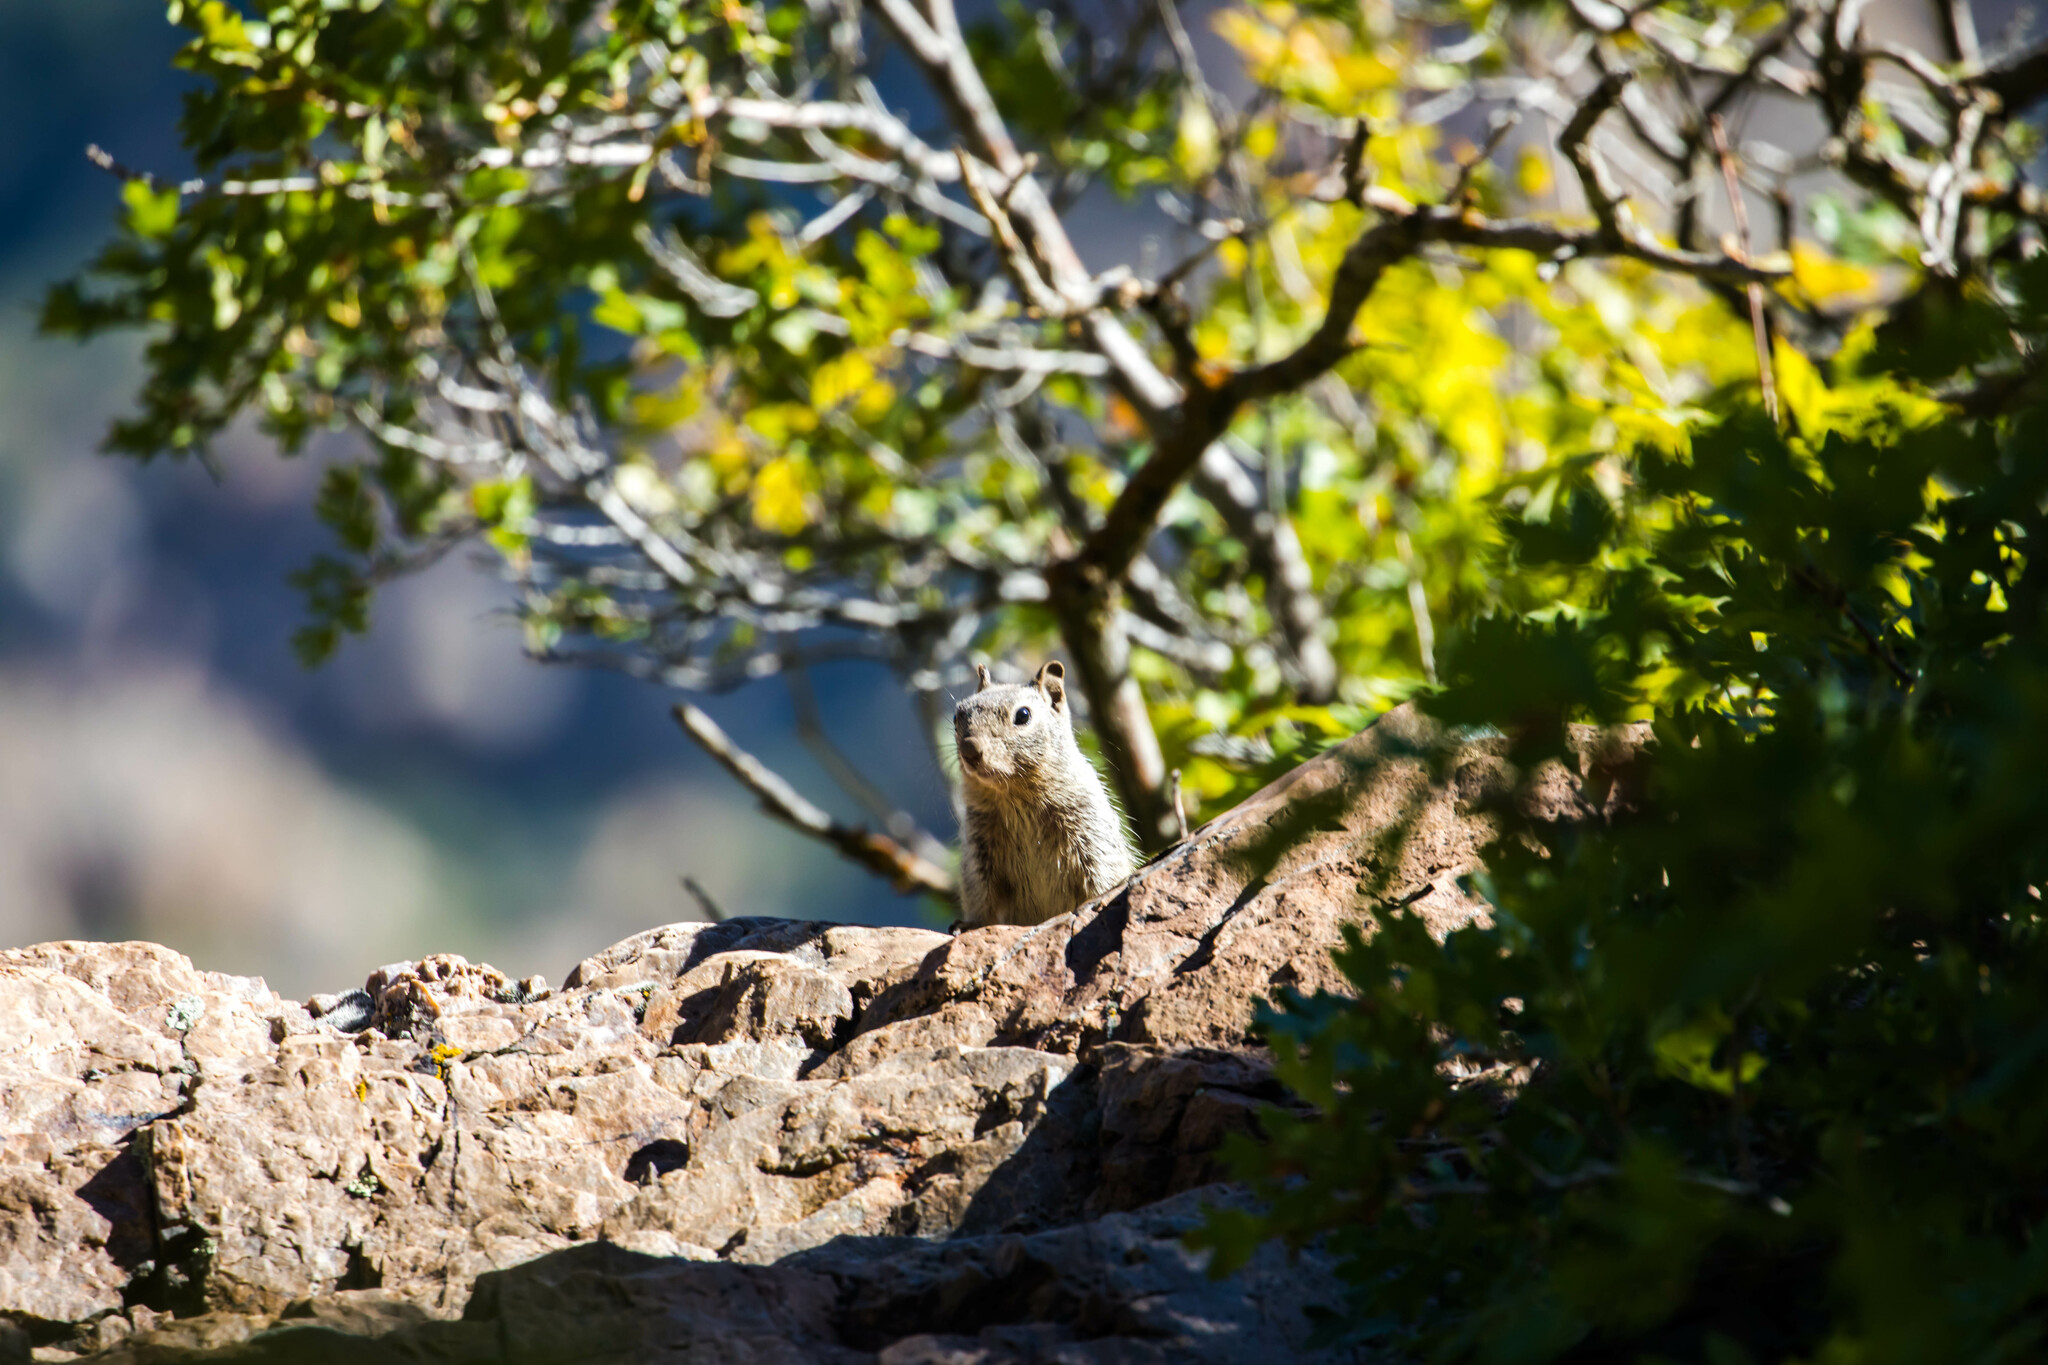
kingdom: Animalia
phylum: Chordata
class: Mammalia
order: Rodentia
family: Sciuridae
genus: Otospermophilus
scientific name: Otospermophilus variegatus
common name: Rock squirrel
